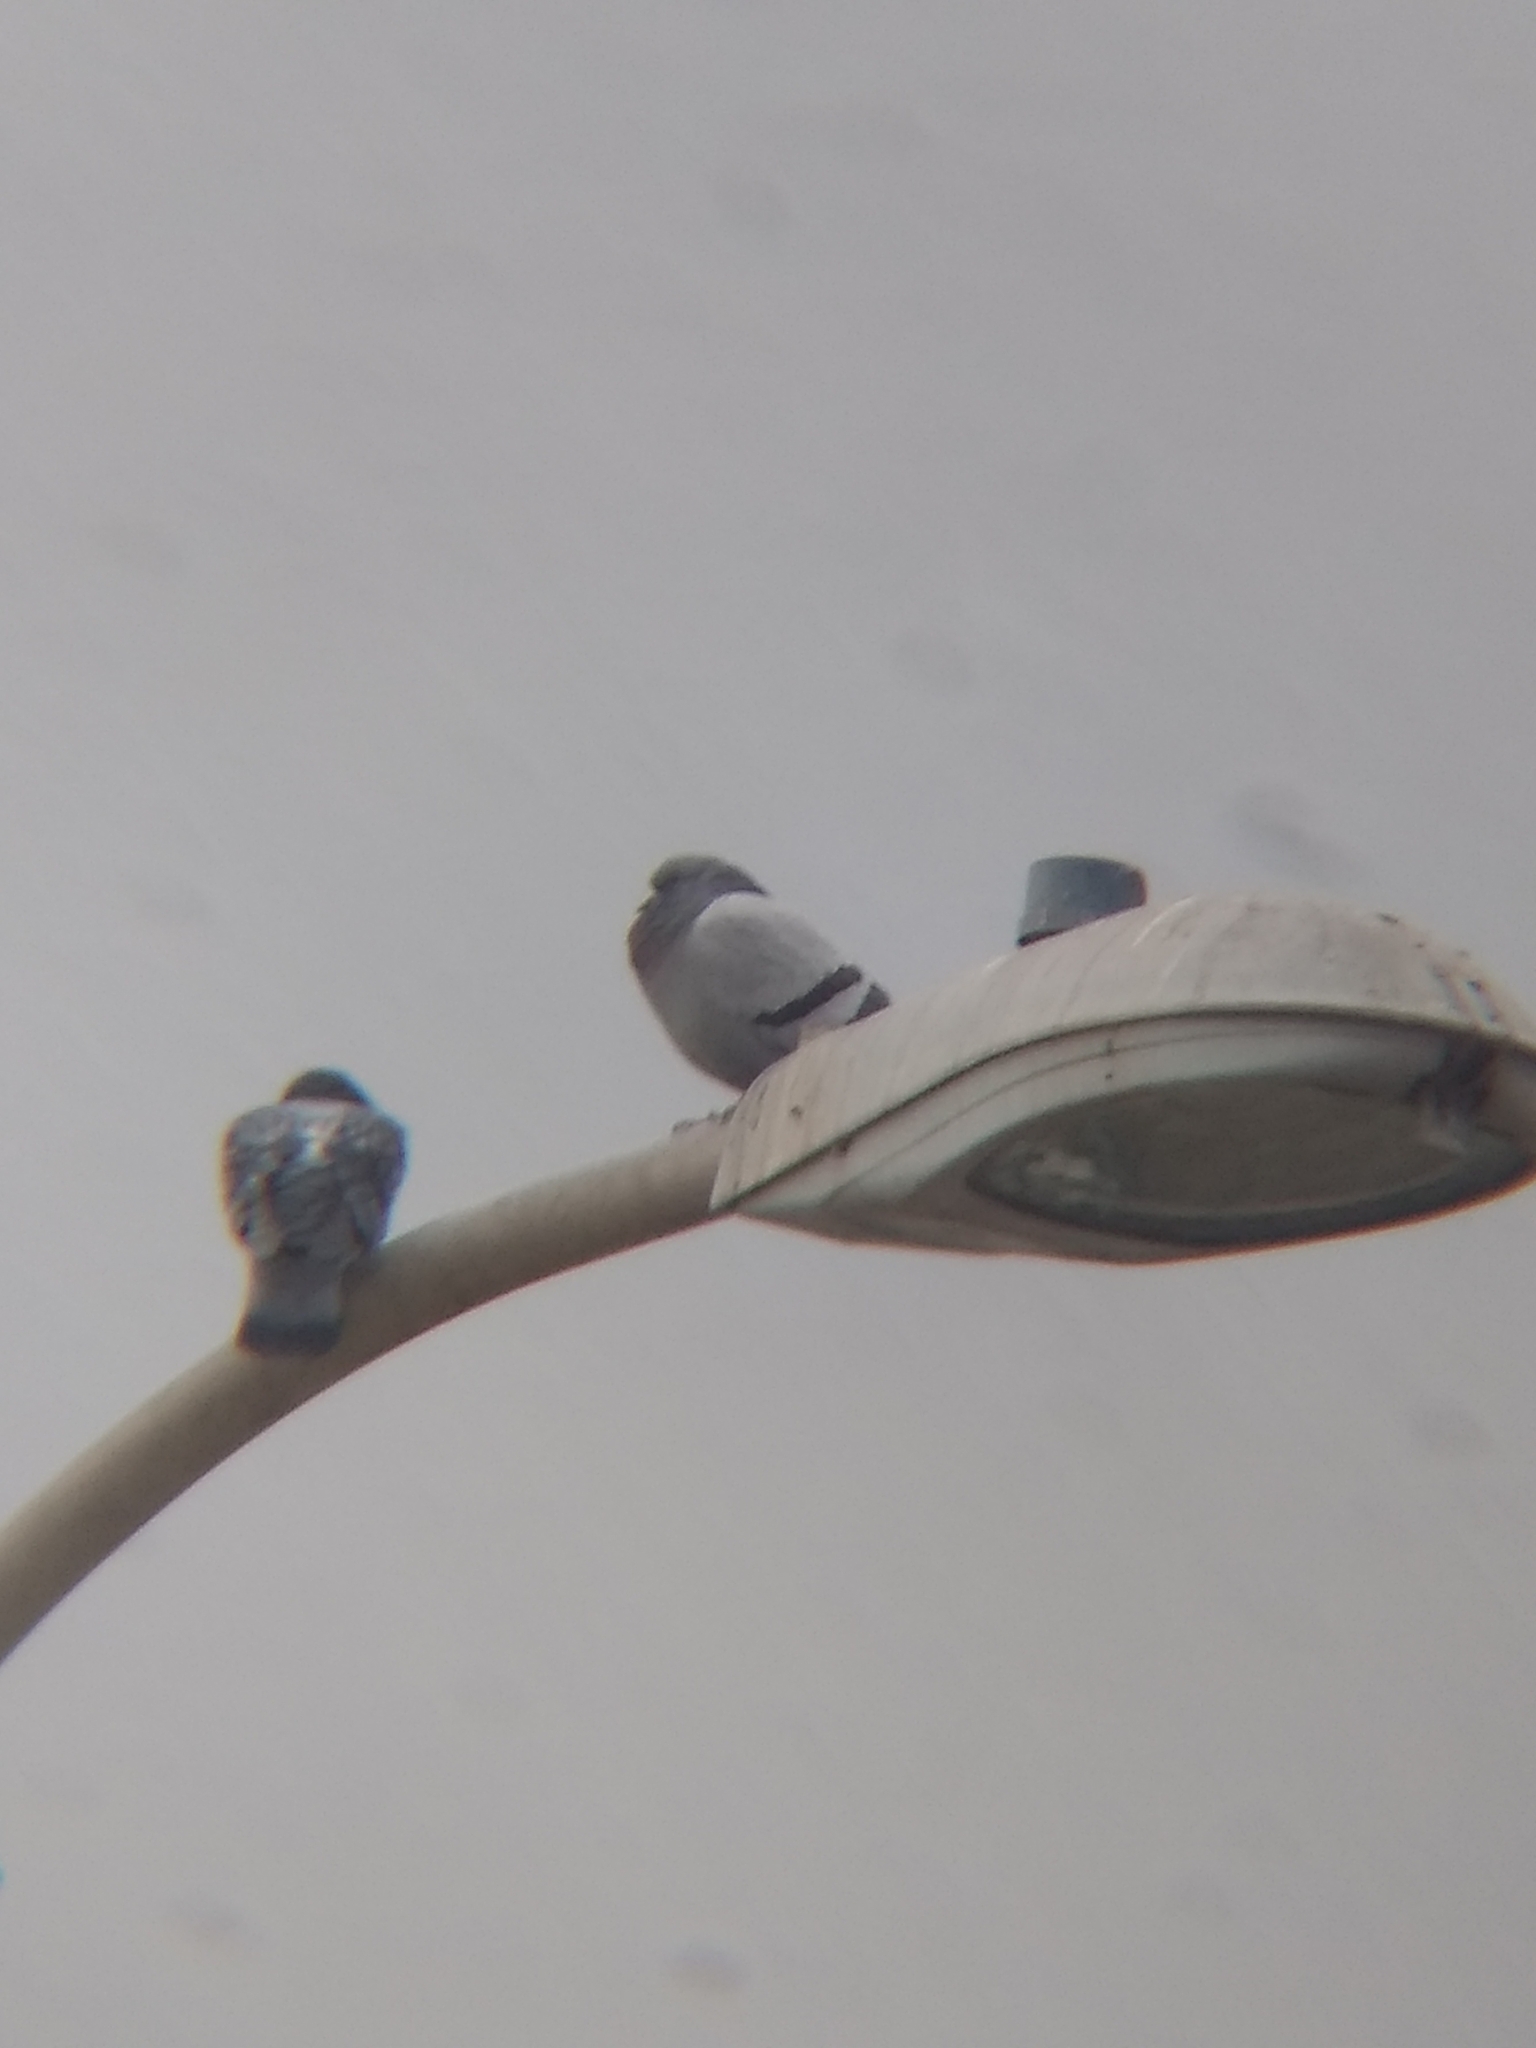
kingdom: Animalia
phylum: Chordata
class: Aves
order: Columbiformes
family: Columbidae
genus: Columba
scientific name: Columba livia
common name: Rock pigeon
